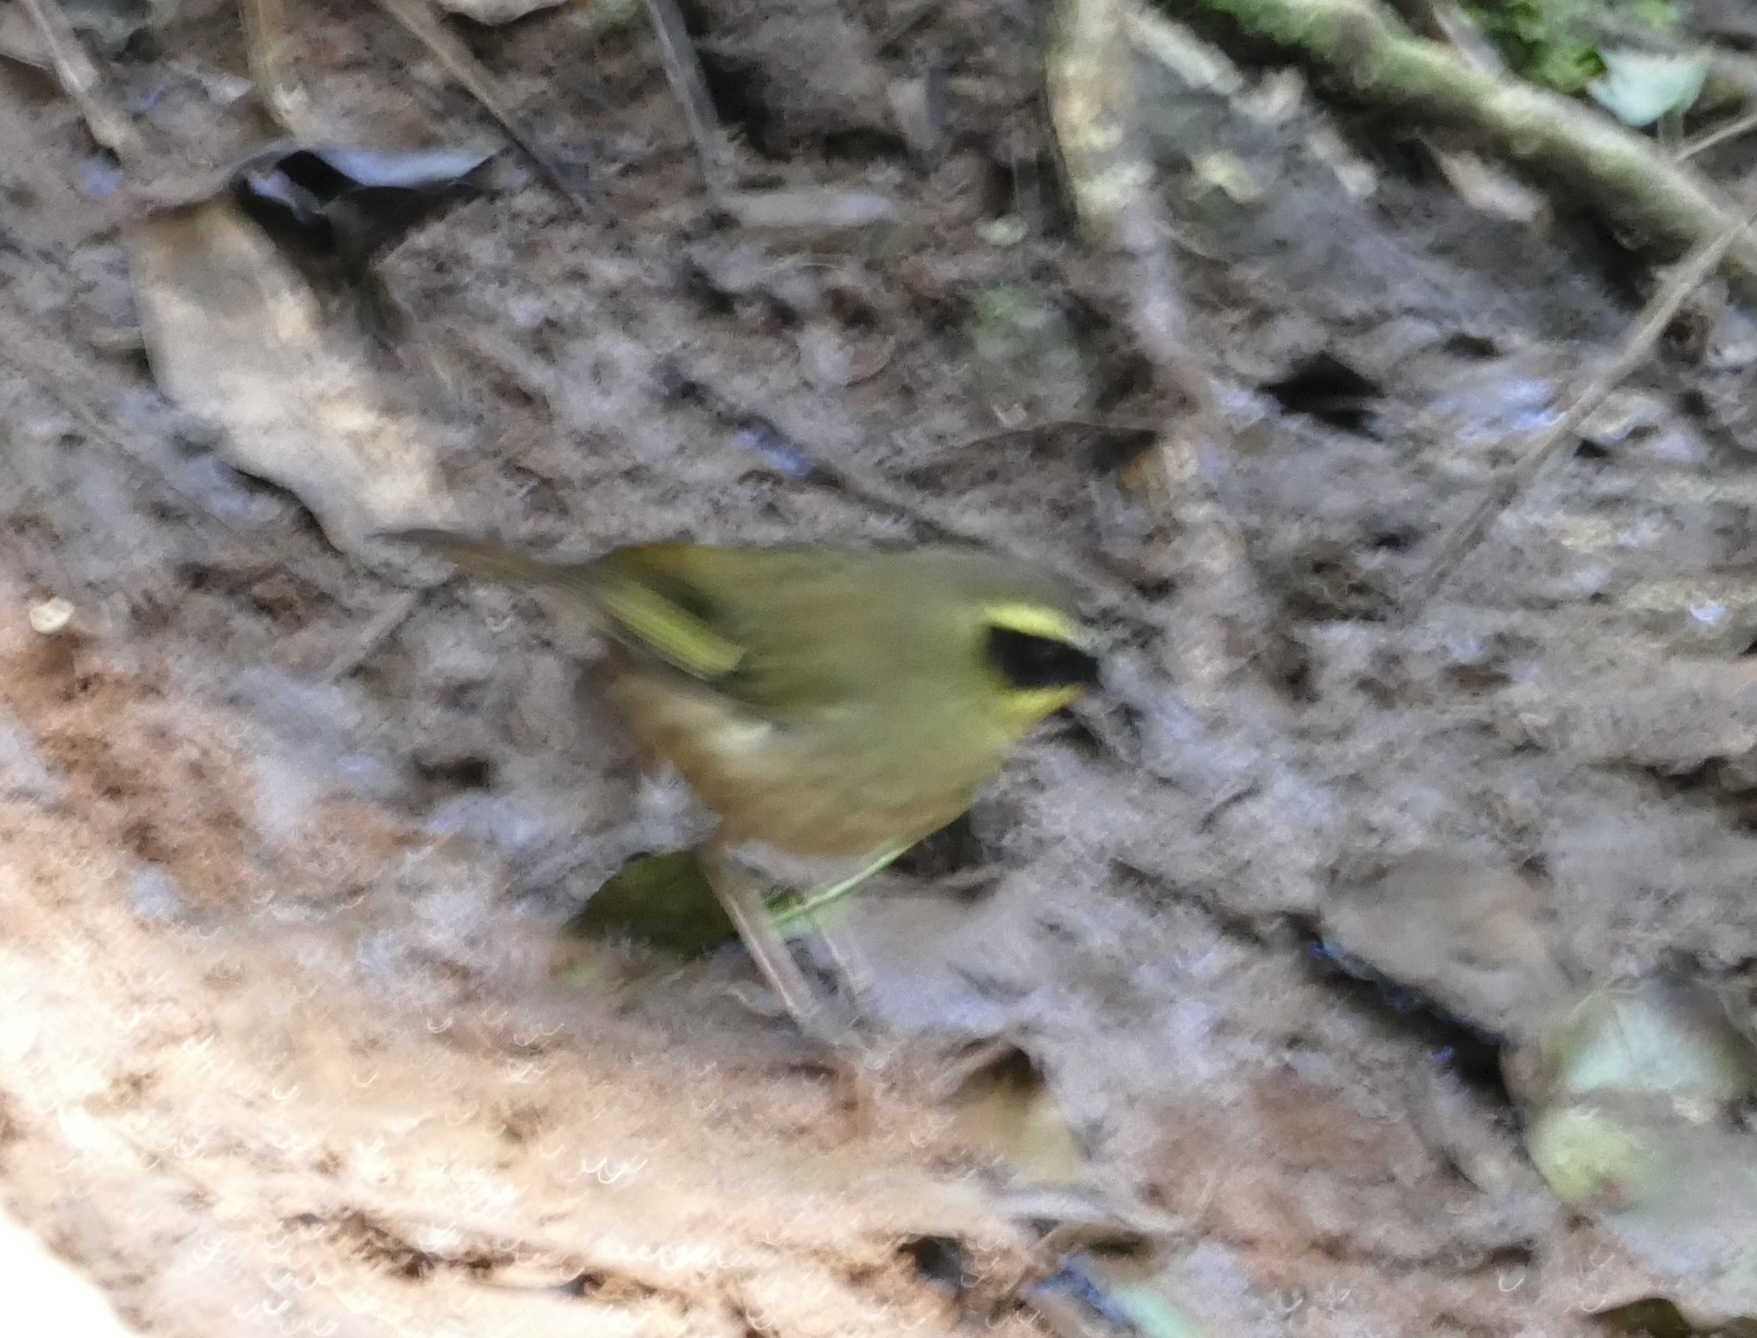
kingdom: Animalia
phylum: Chordata
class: Aves
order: Passeriformes
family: Acanthizidae
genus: Sericornis
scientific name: Sericornis citreogularis
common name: Yellow-throated scrubwren
